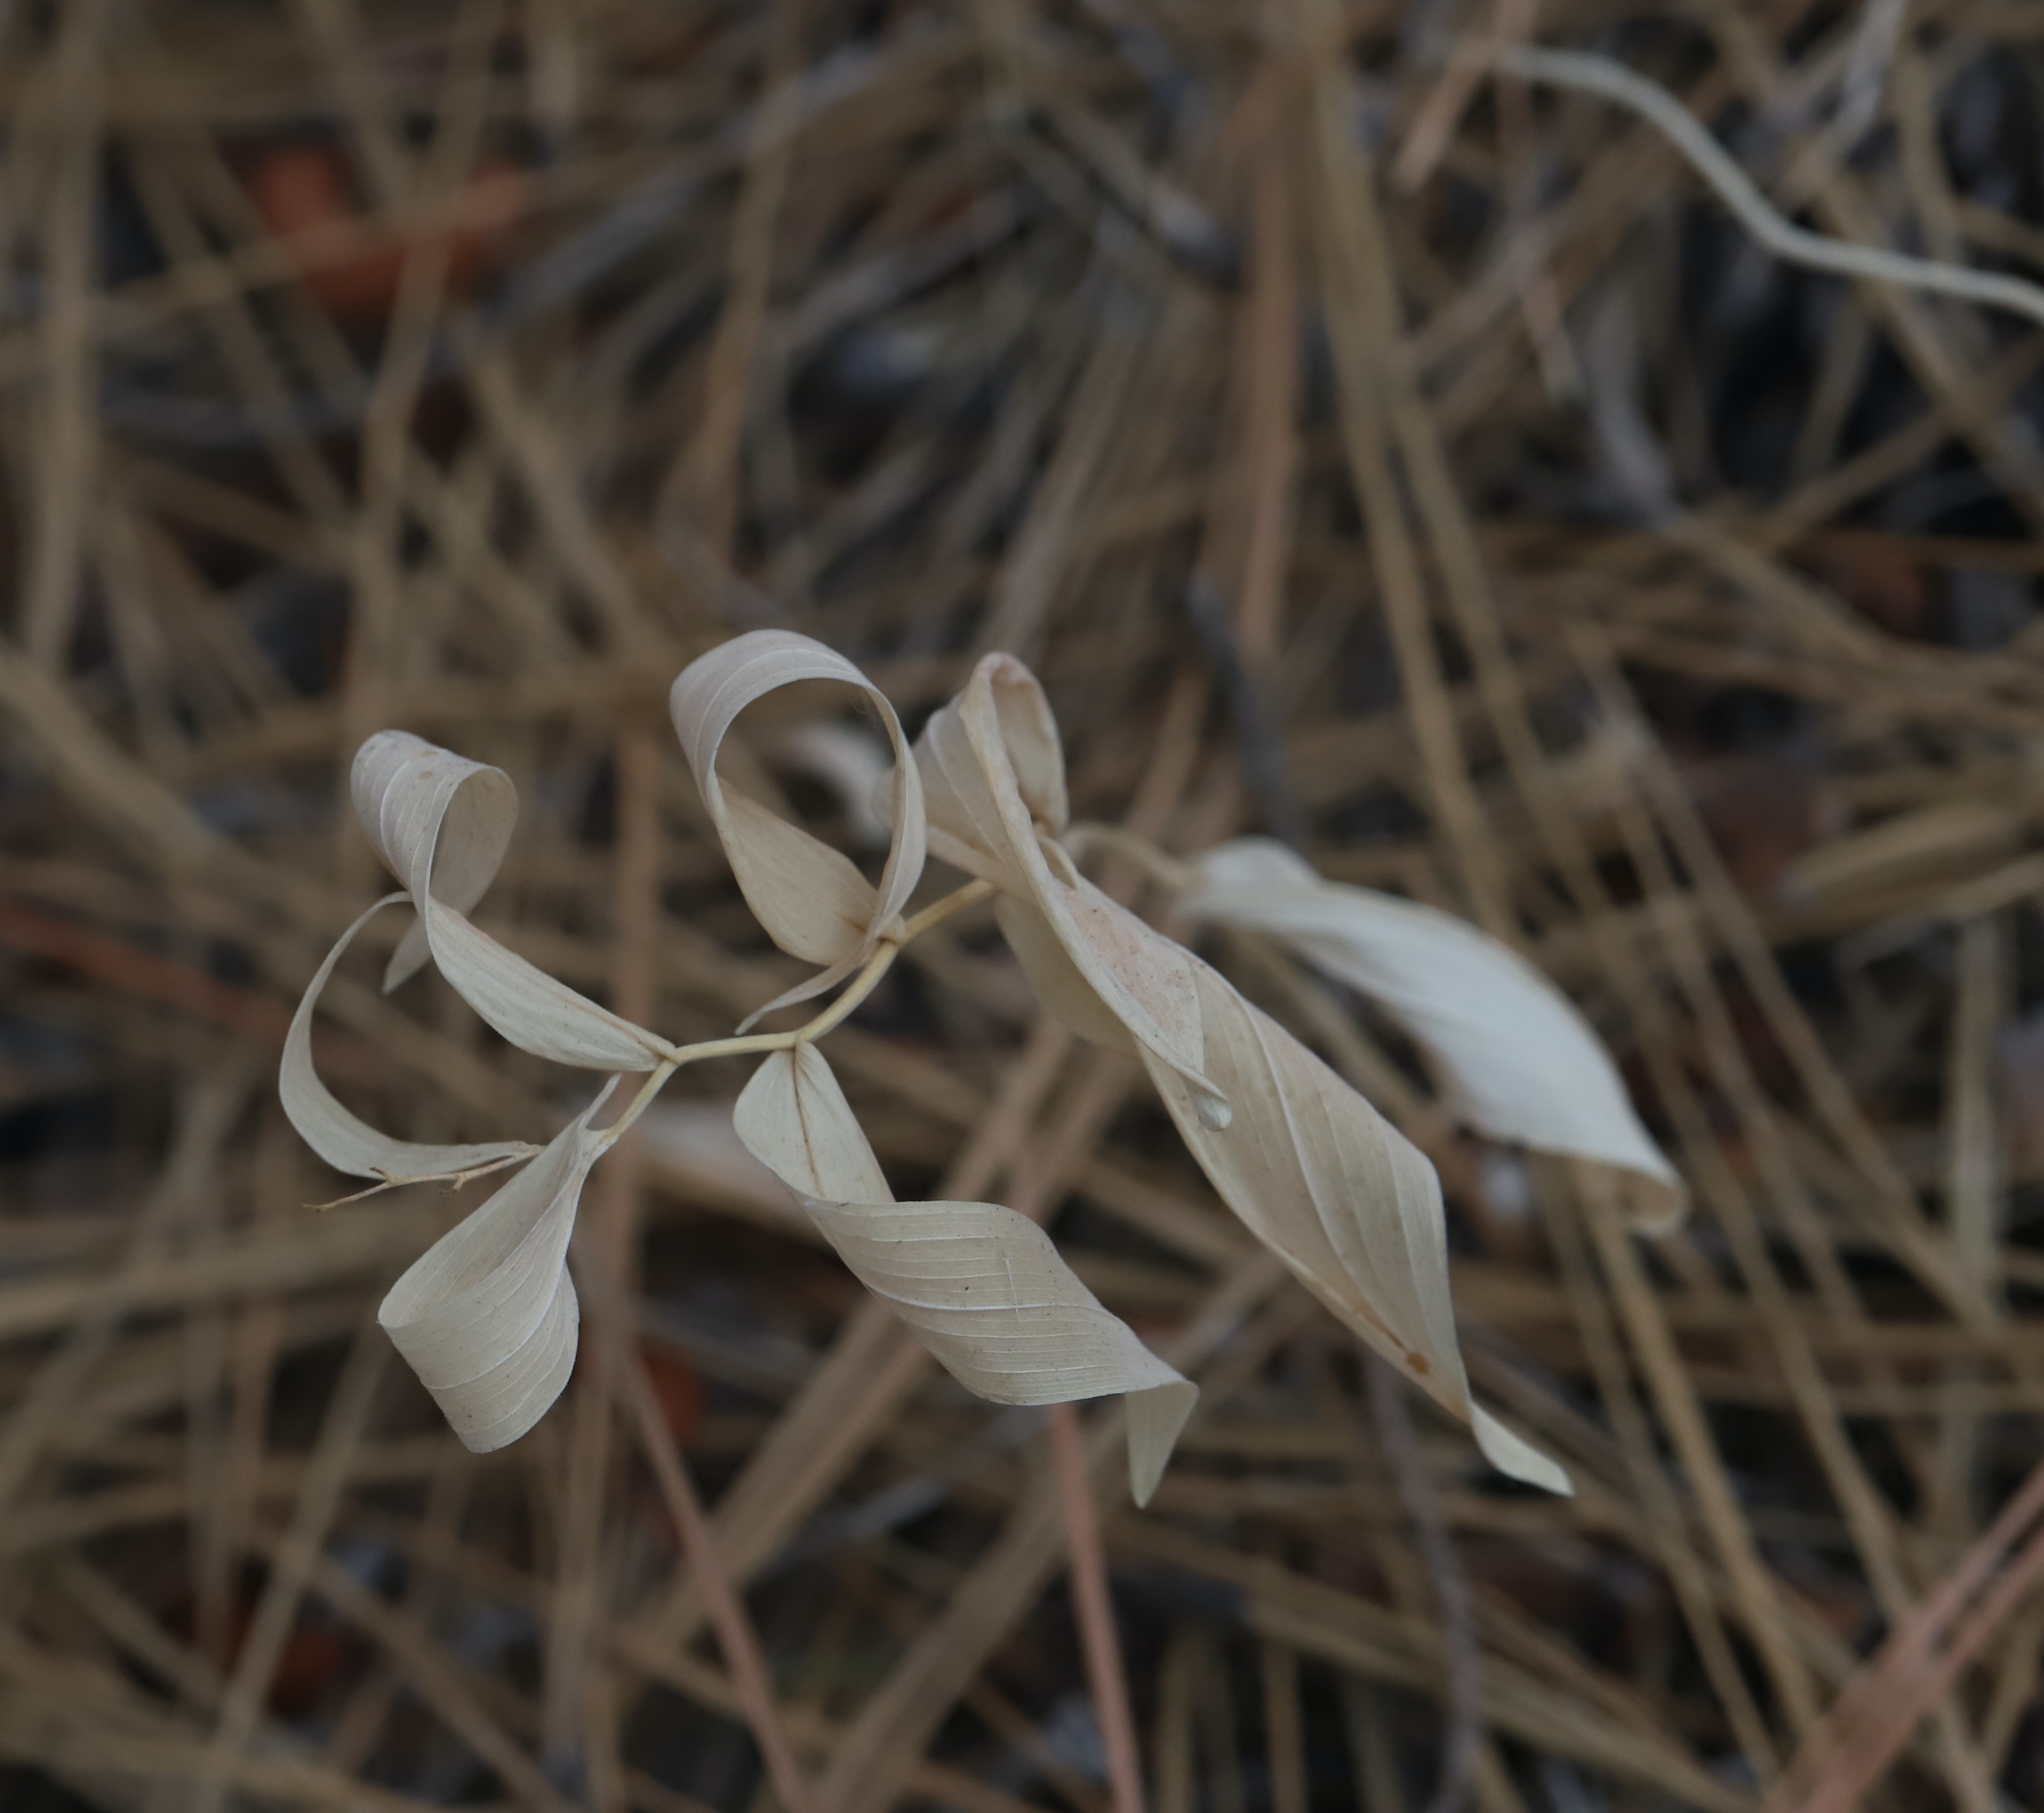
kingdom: Plantae
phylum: Tracheophyta
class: Liliopsida
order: Asparagales
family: Asparagaceae
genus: Maianthemum
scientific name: Maianthemum stellatum
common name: Little false solomon's seal
